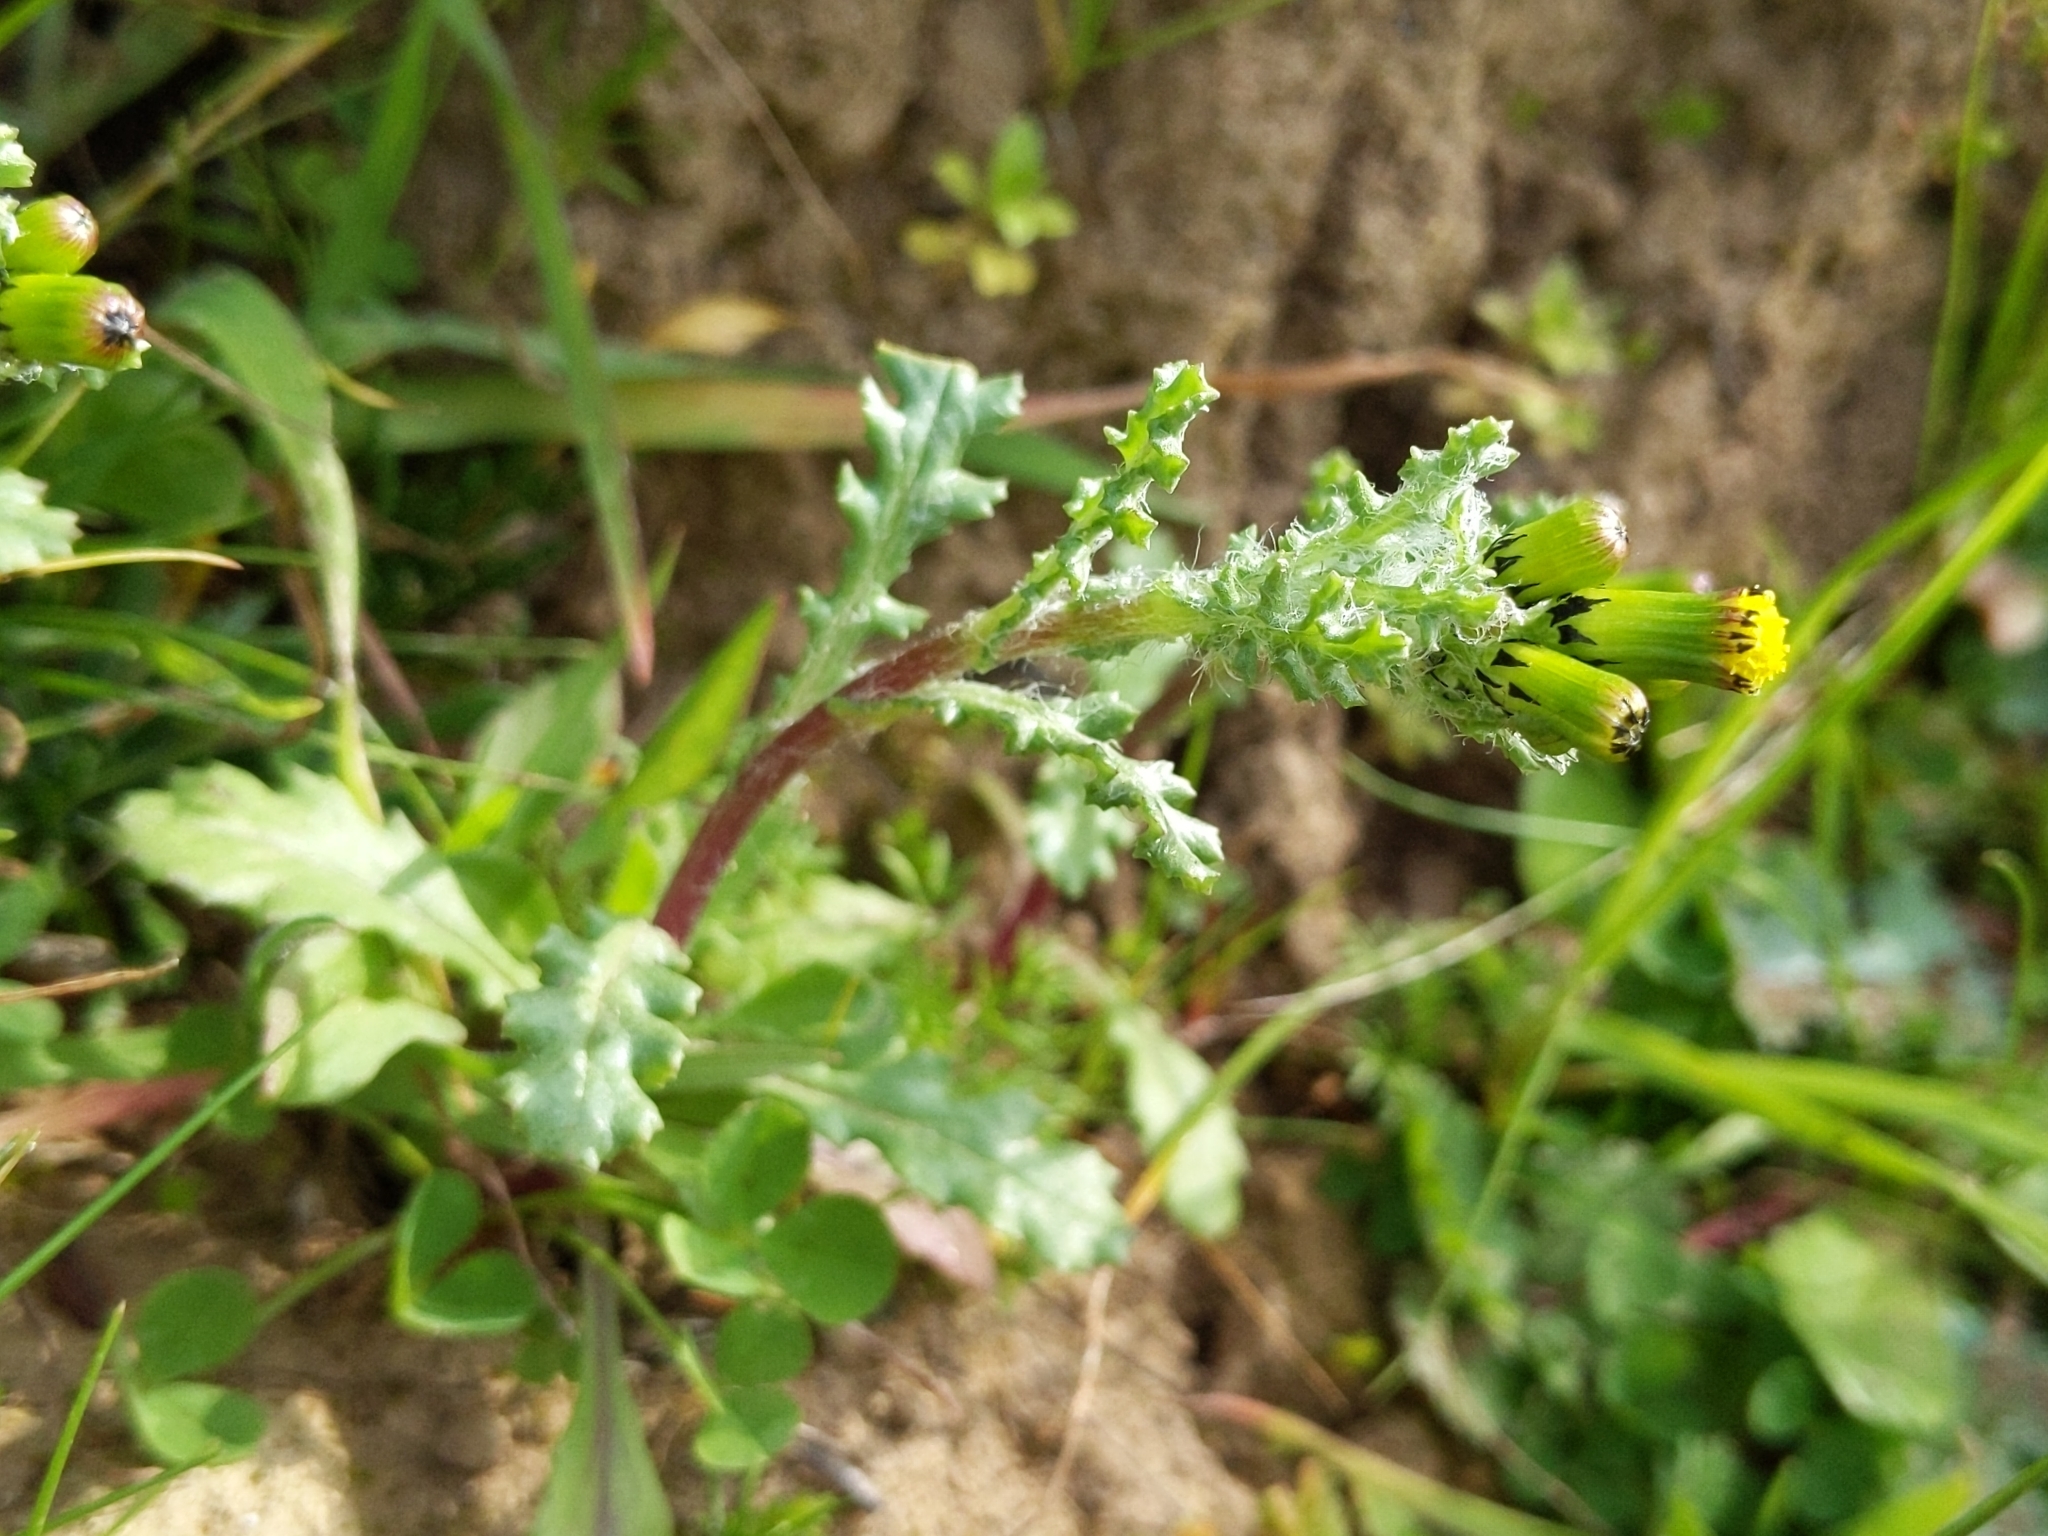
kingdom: Plantae
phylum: Tracheophyta
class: Magnoliopsida
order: Asterales
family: Asteraceae
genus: Senecio
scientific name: Senecio vulgaris
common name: Old-man-in-the-spring
